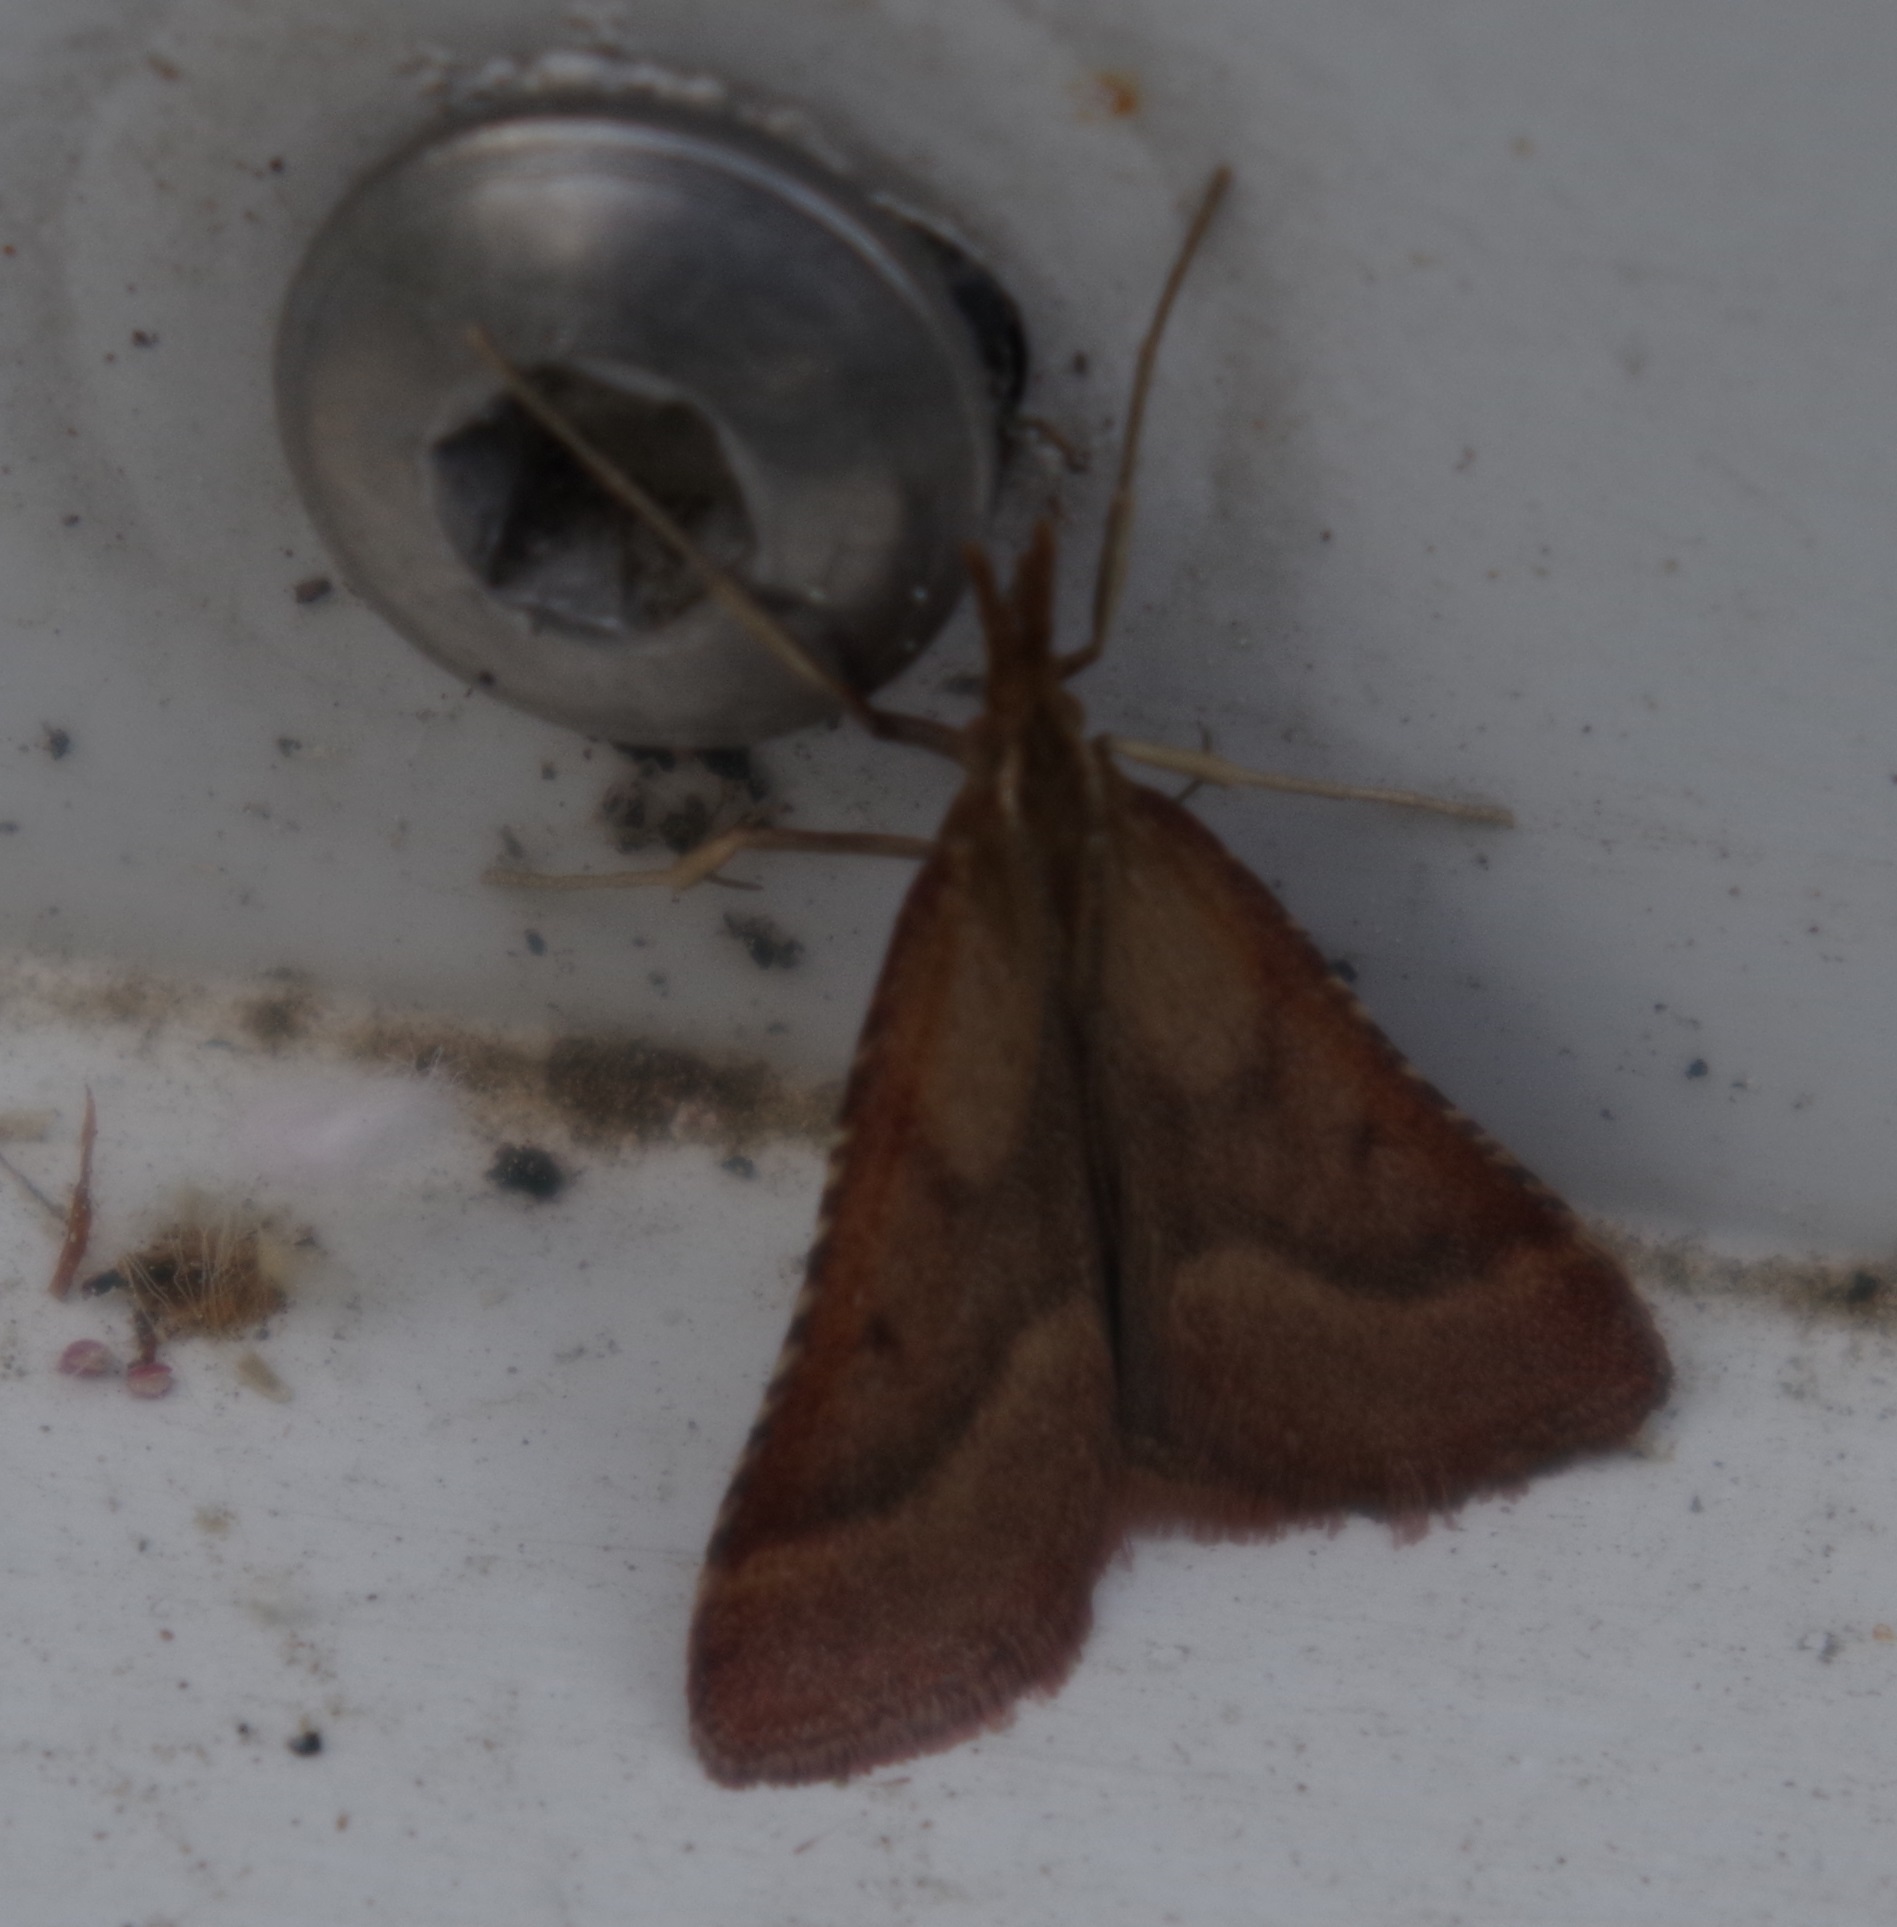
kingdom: Animalia
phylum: Arthropoda
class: Insecta
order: Lepidoptera
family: Pyralidae
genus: Synaphe
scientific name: Synaphe punctalis
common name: Long-legged tabby
